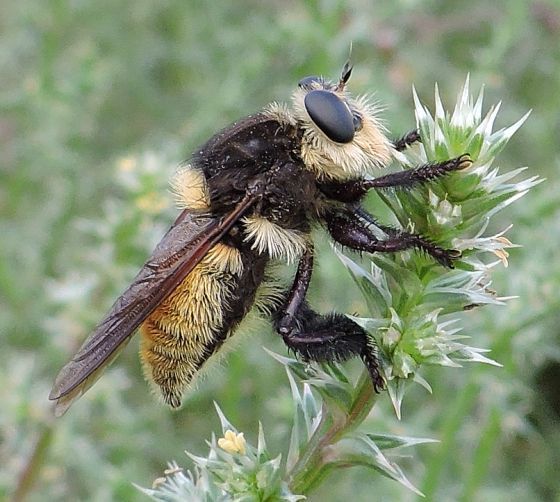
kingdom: Animalia
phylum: Arthropoda
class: Insecta
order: Diptera
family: Asilidae
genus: Mallophora
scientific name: Mallophora fautrix
